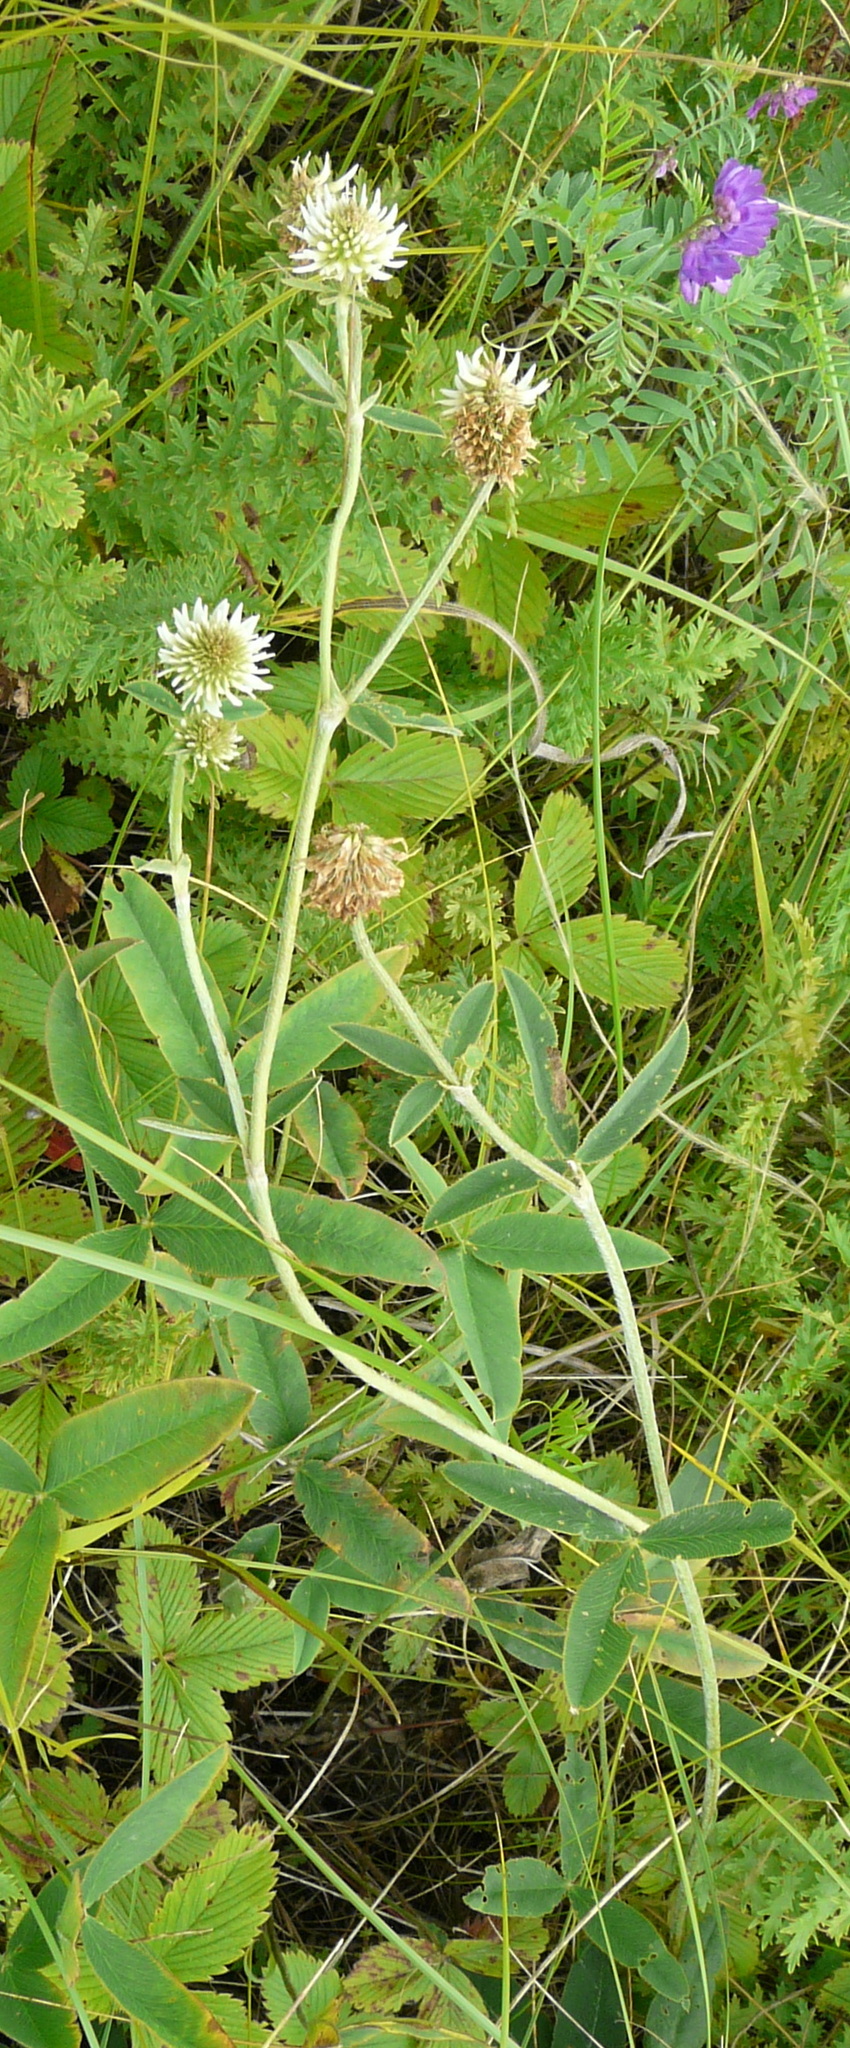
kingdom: Plantae
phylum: Tracheophyta
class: Magnoliopsida
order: Fabales
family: Fabaceae
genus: Trifolium
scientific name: Trifolium montanum
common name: Mountain clover
